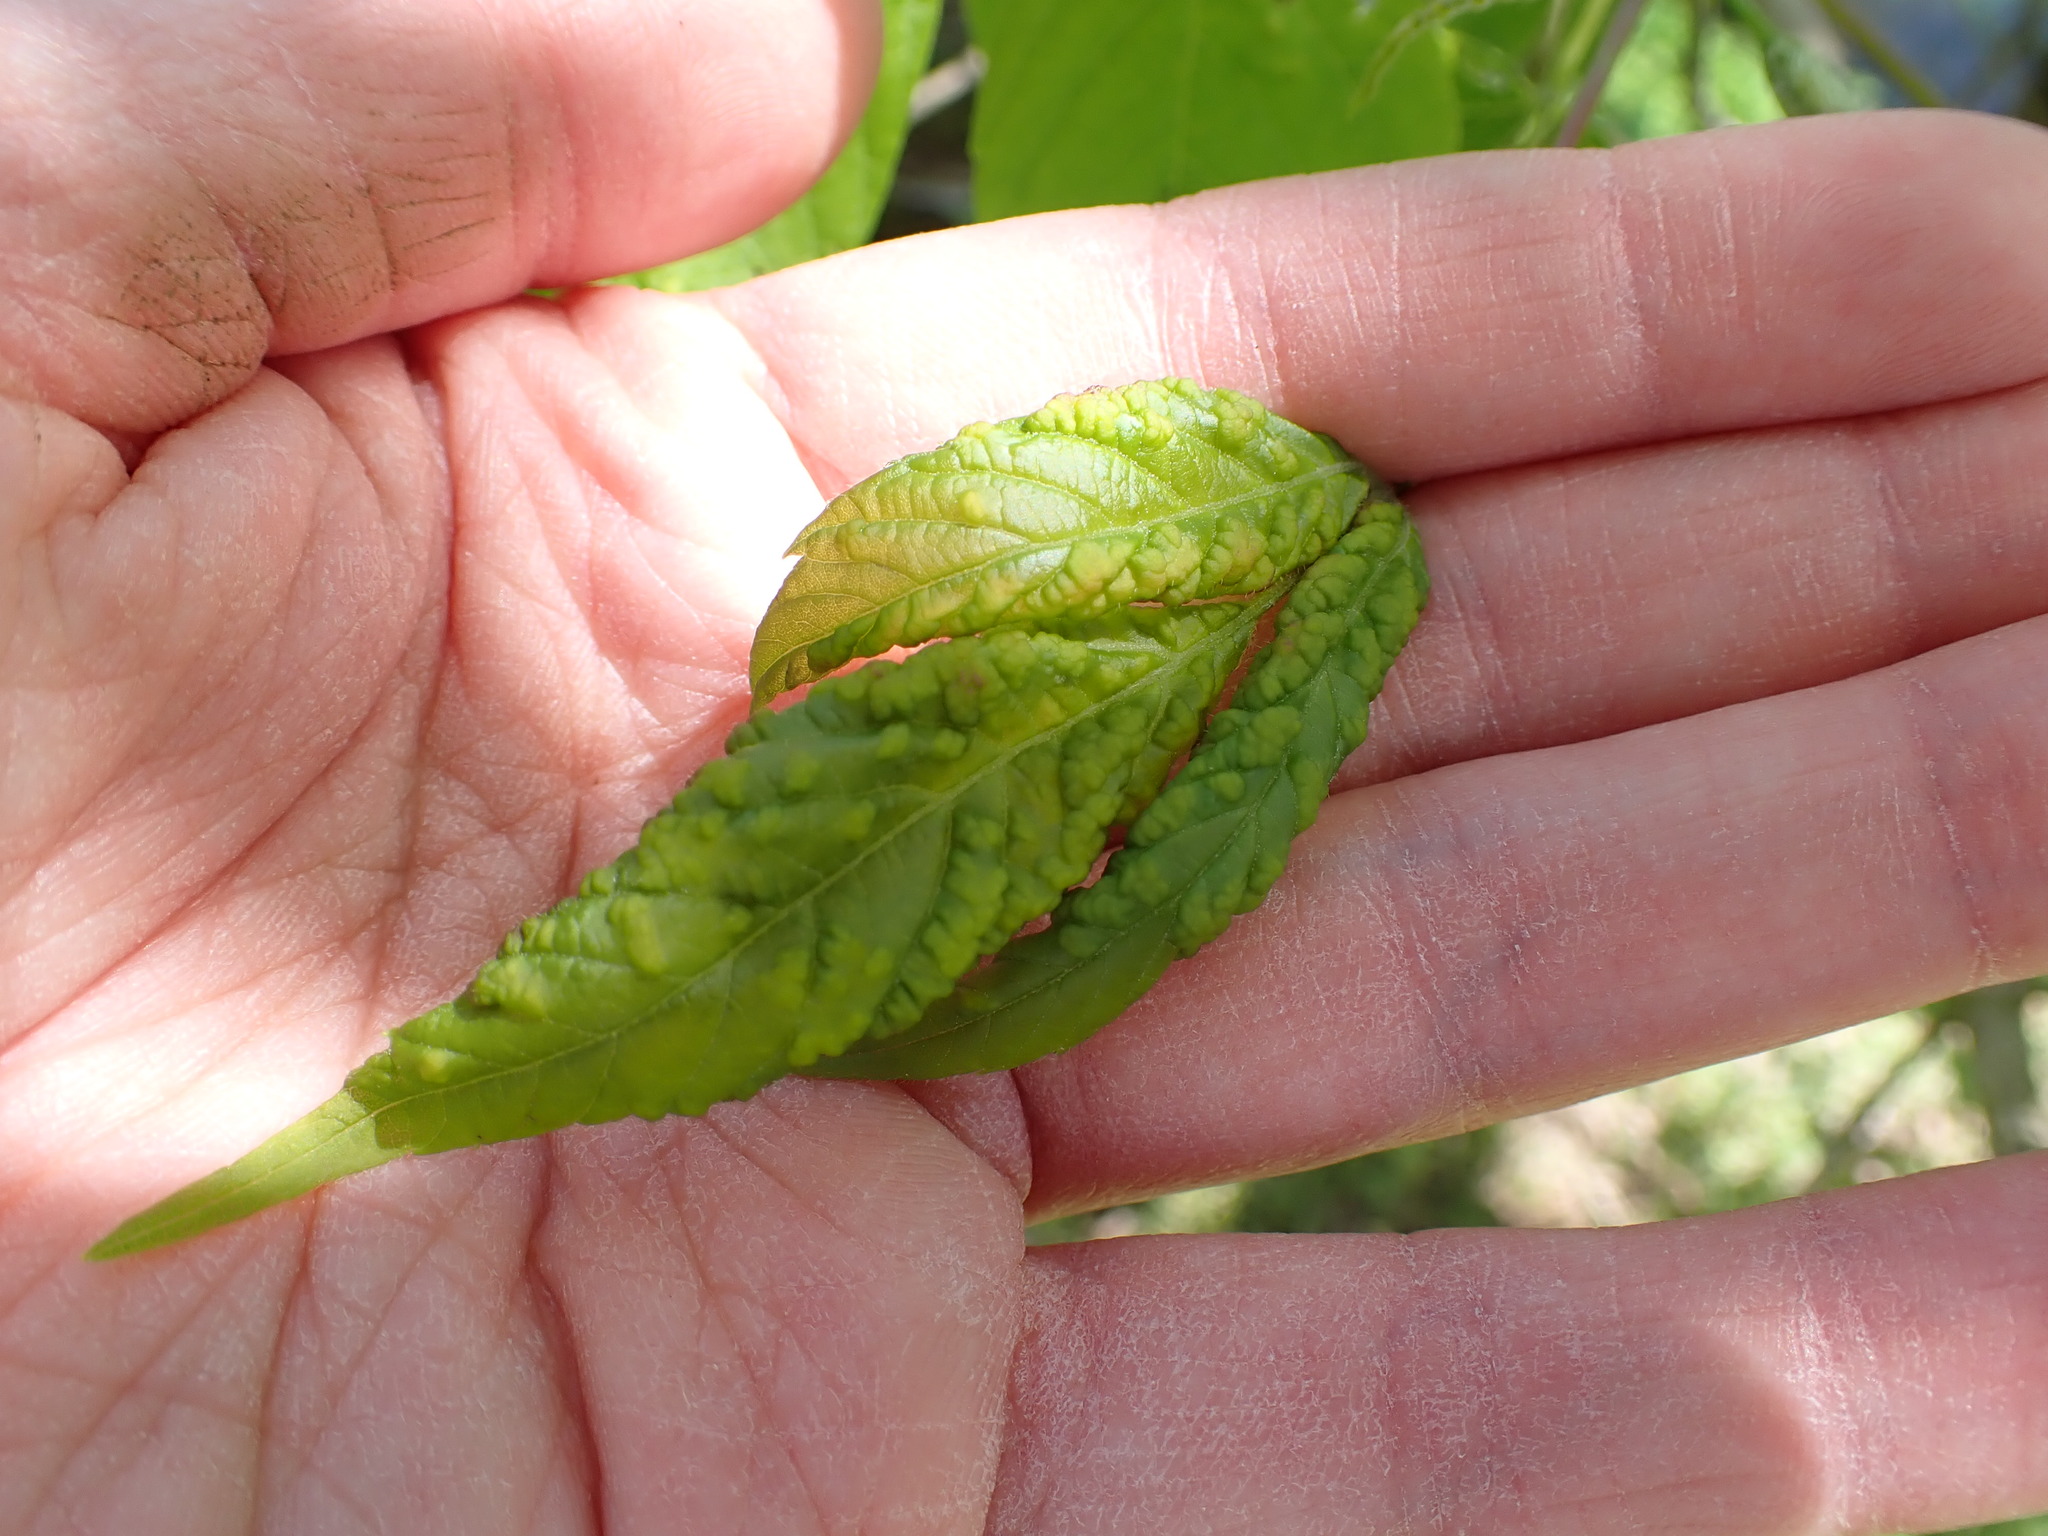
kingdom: Animalia
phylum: Arthropoda
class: Arachnida
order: Trombidiformes
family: Eriophyidae
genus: Aceria
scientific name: Aceria
